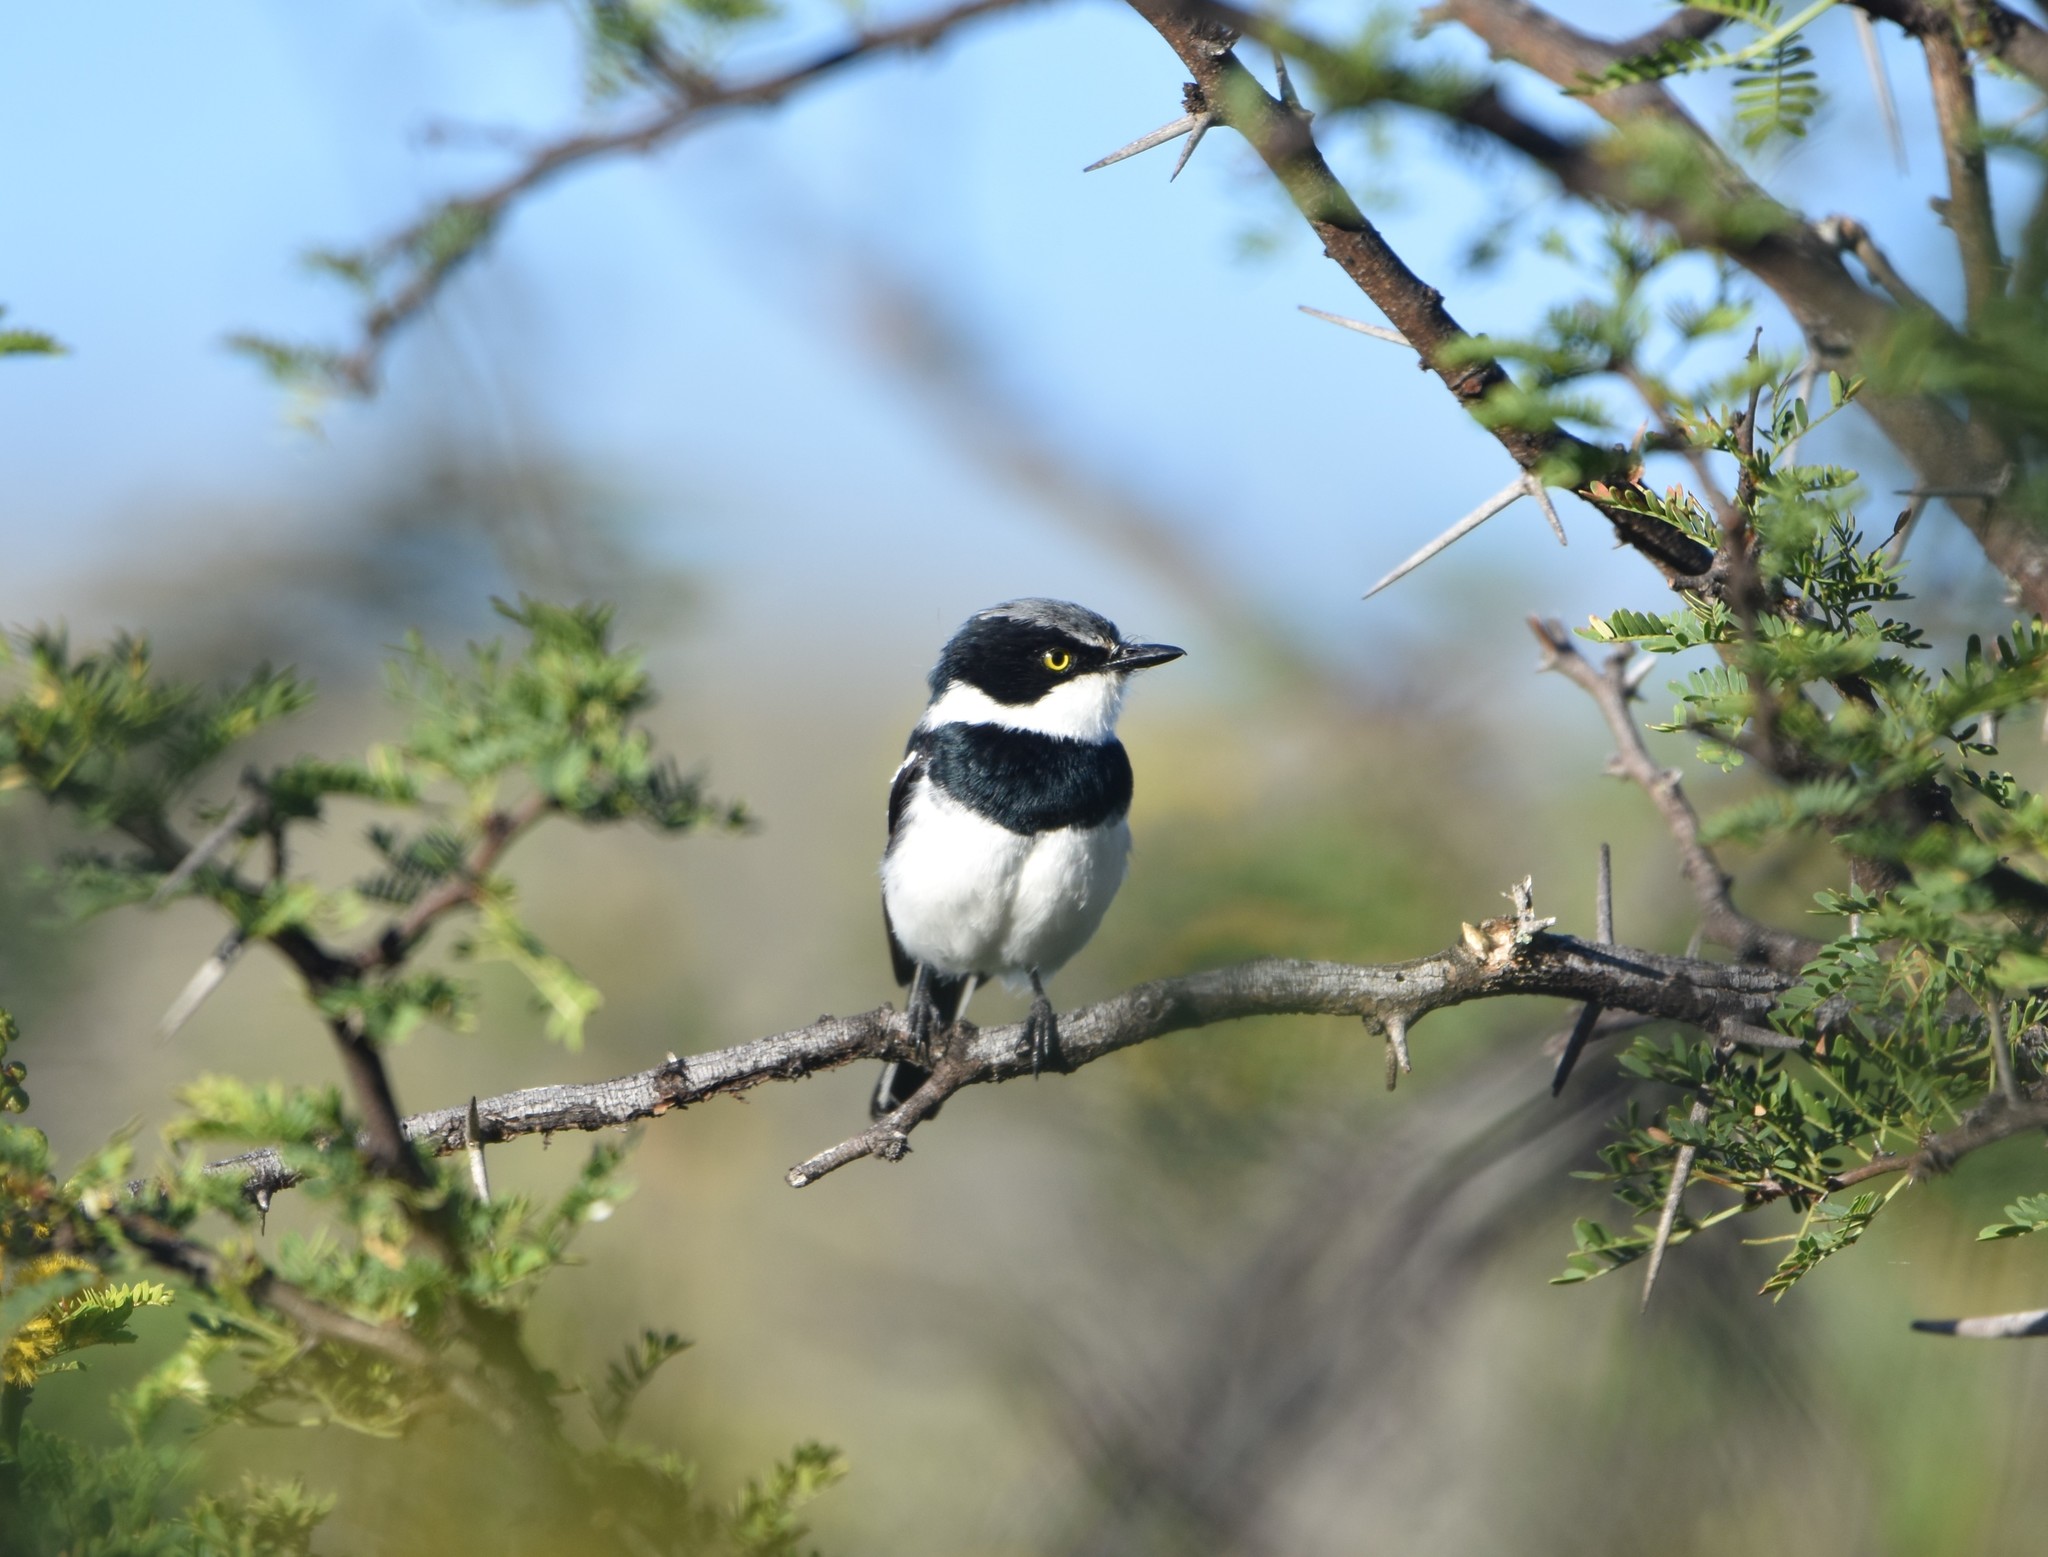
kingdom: Animalia
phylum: Chordata
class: Aves
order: Passeriformes
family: Platysteiridae
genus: Batis
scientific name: Batis molitor
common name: Chinspot batis
